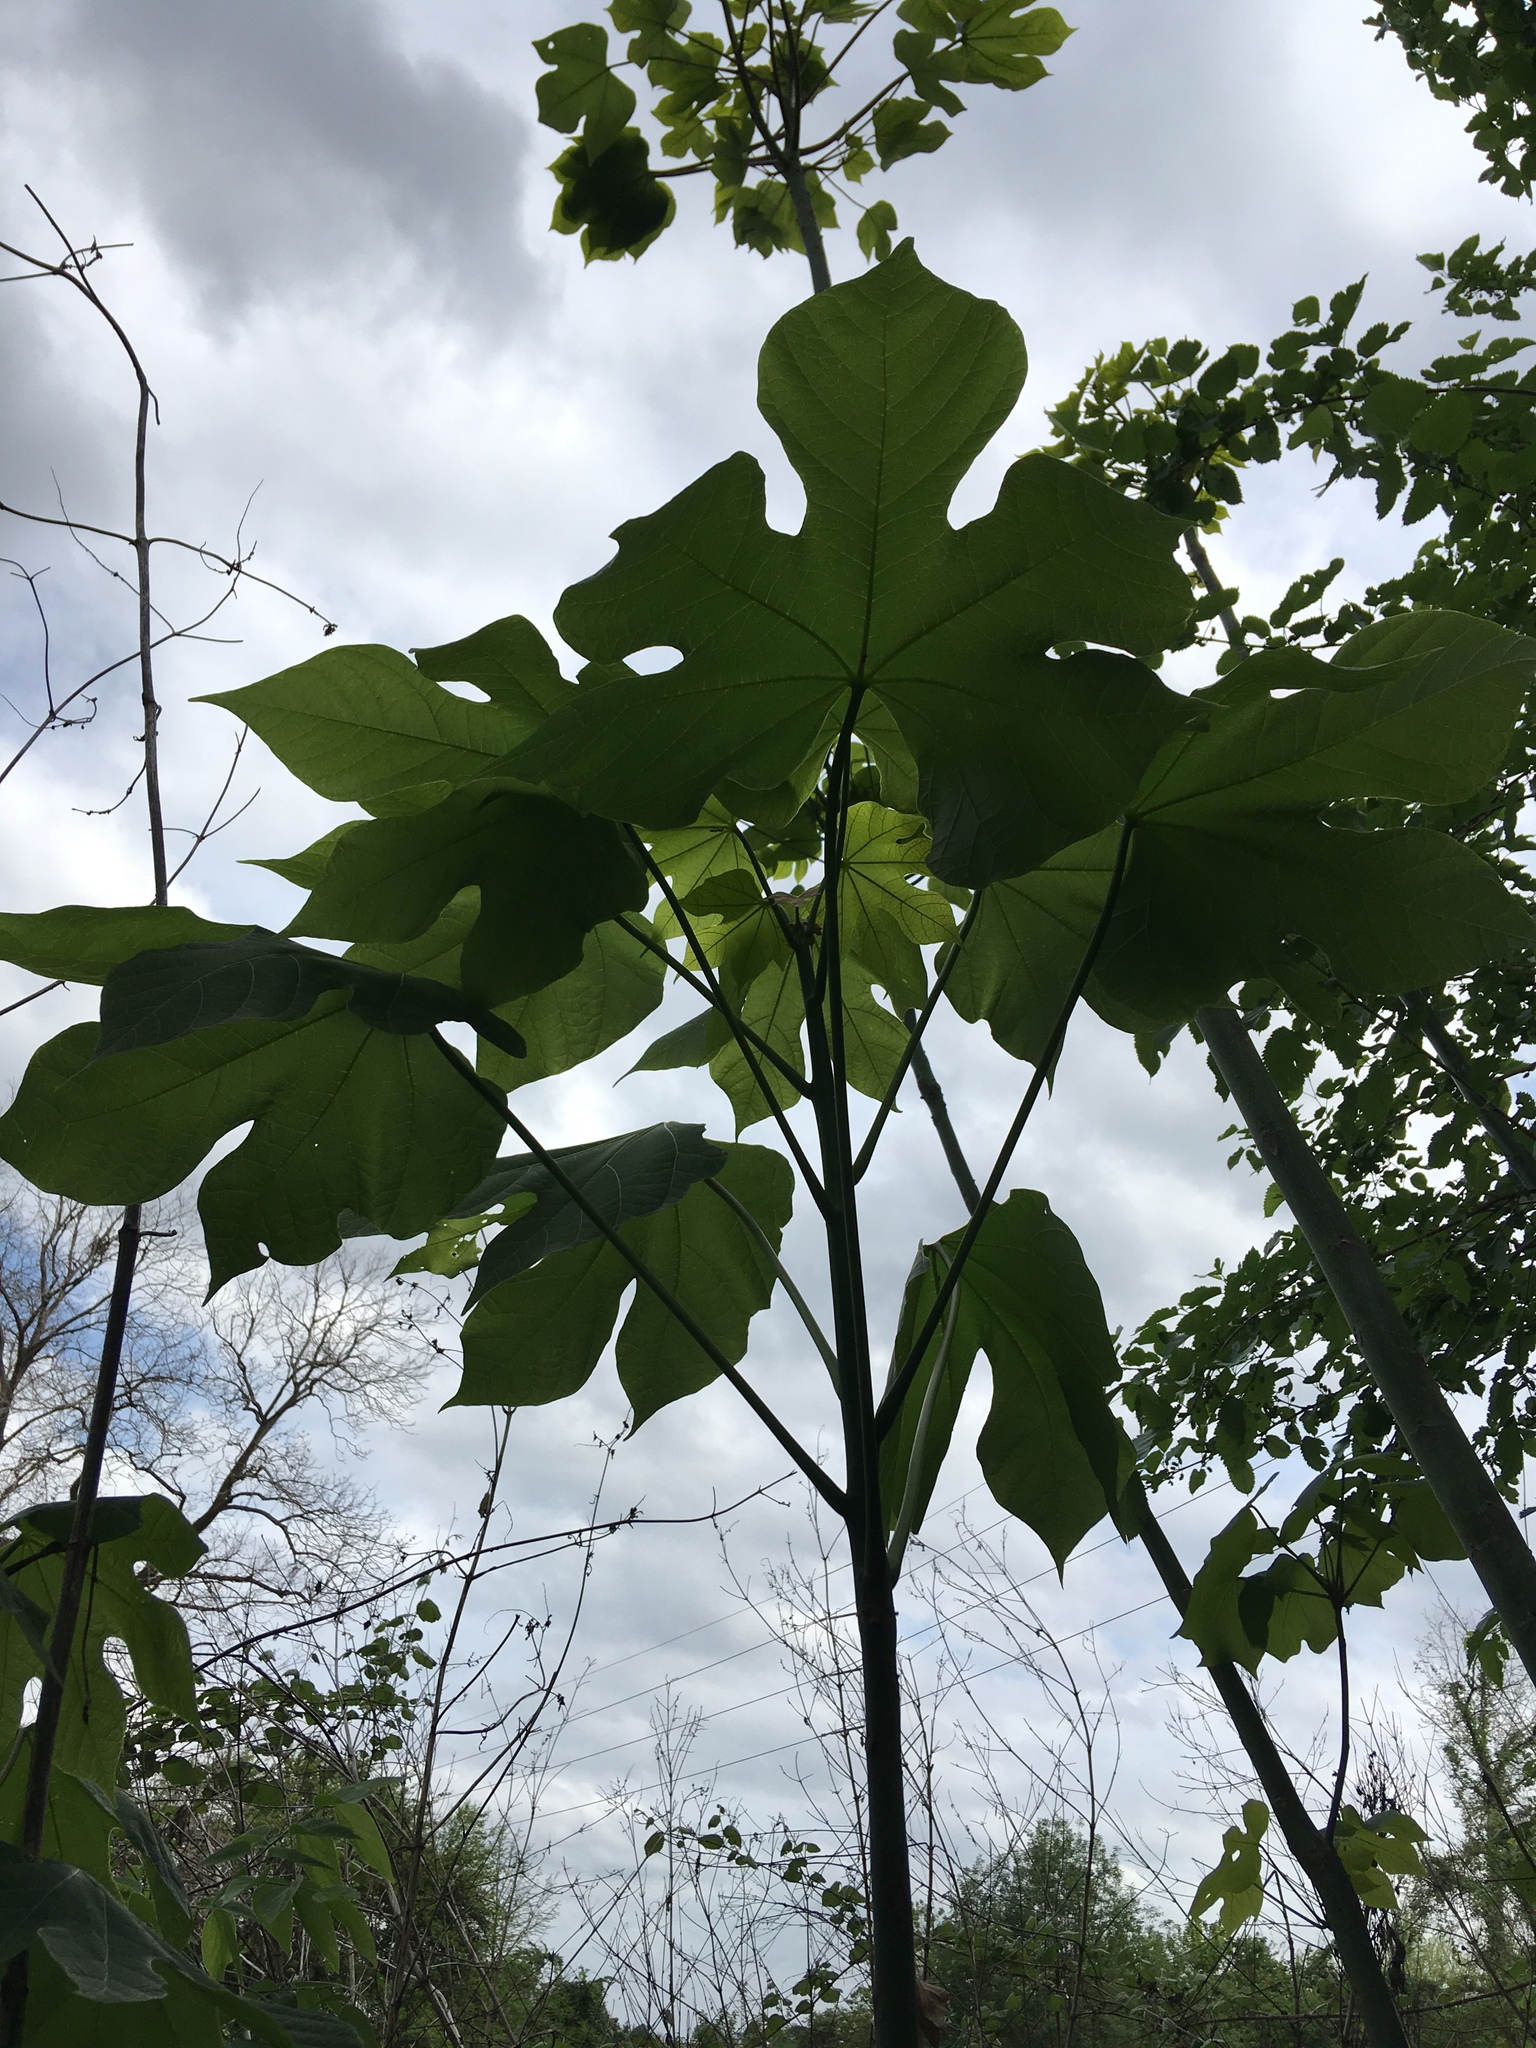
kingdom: Plantae
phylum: Tracheophyta
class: Magnoliopsida
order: Malvales
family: Malvaceae
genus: Firmiana
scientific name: Firmiana simplex
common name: Chinese parasoltree
